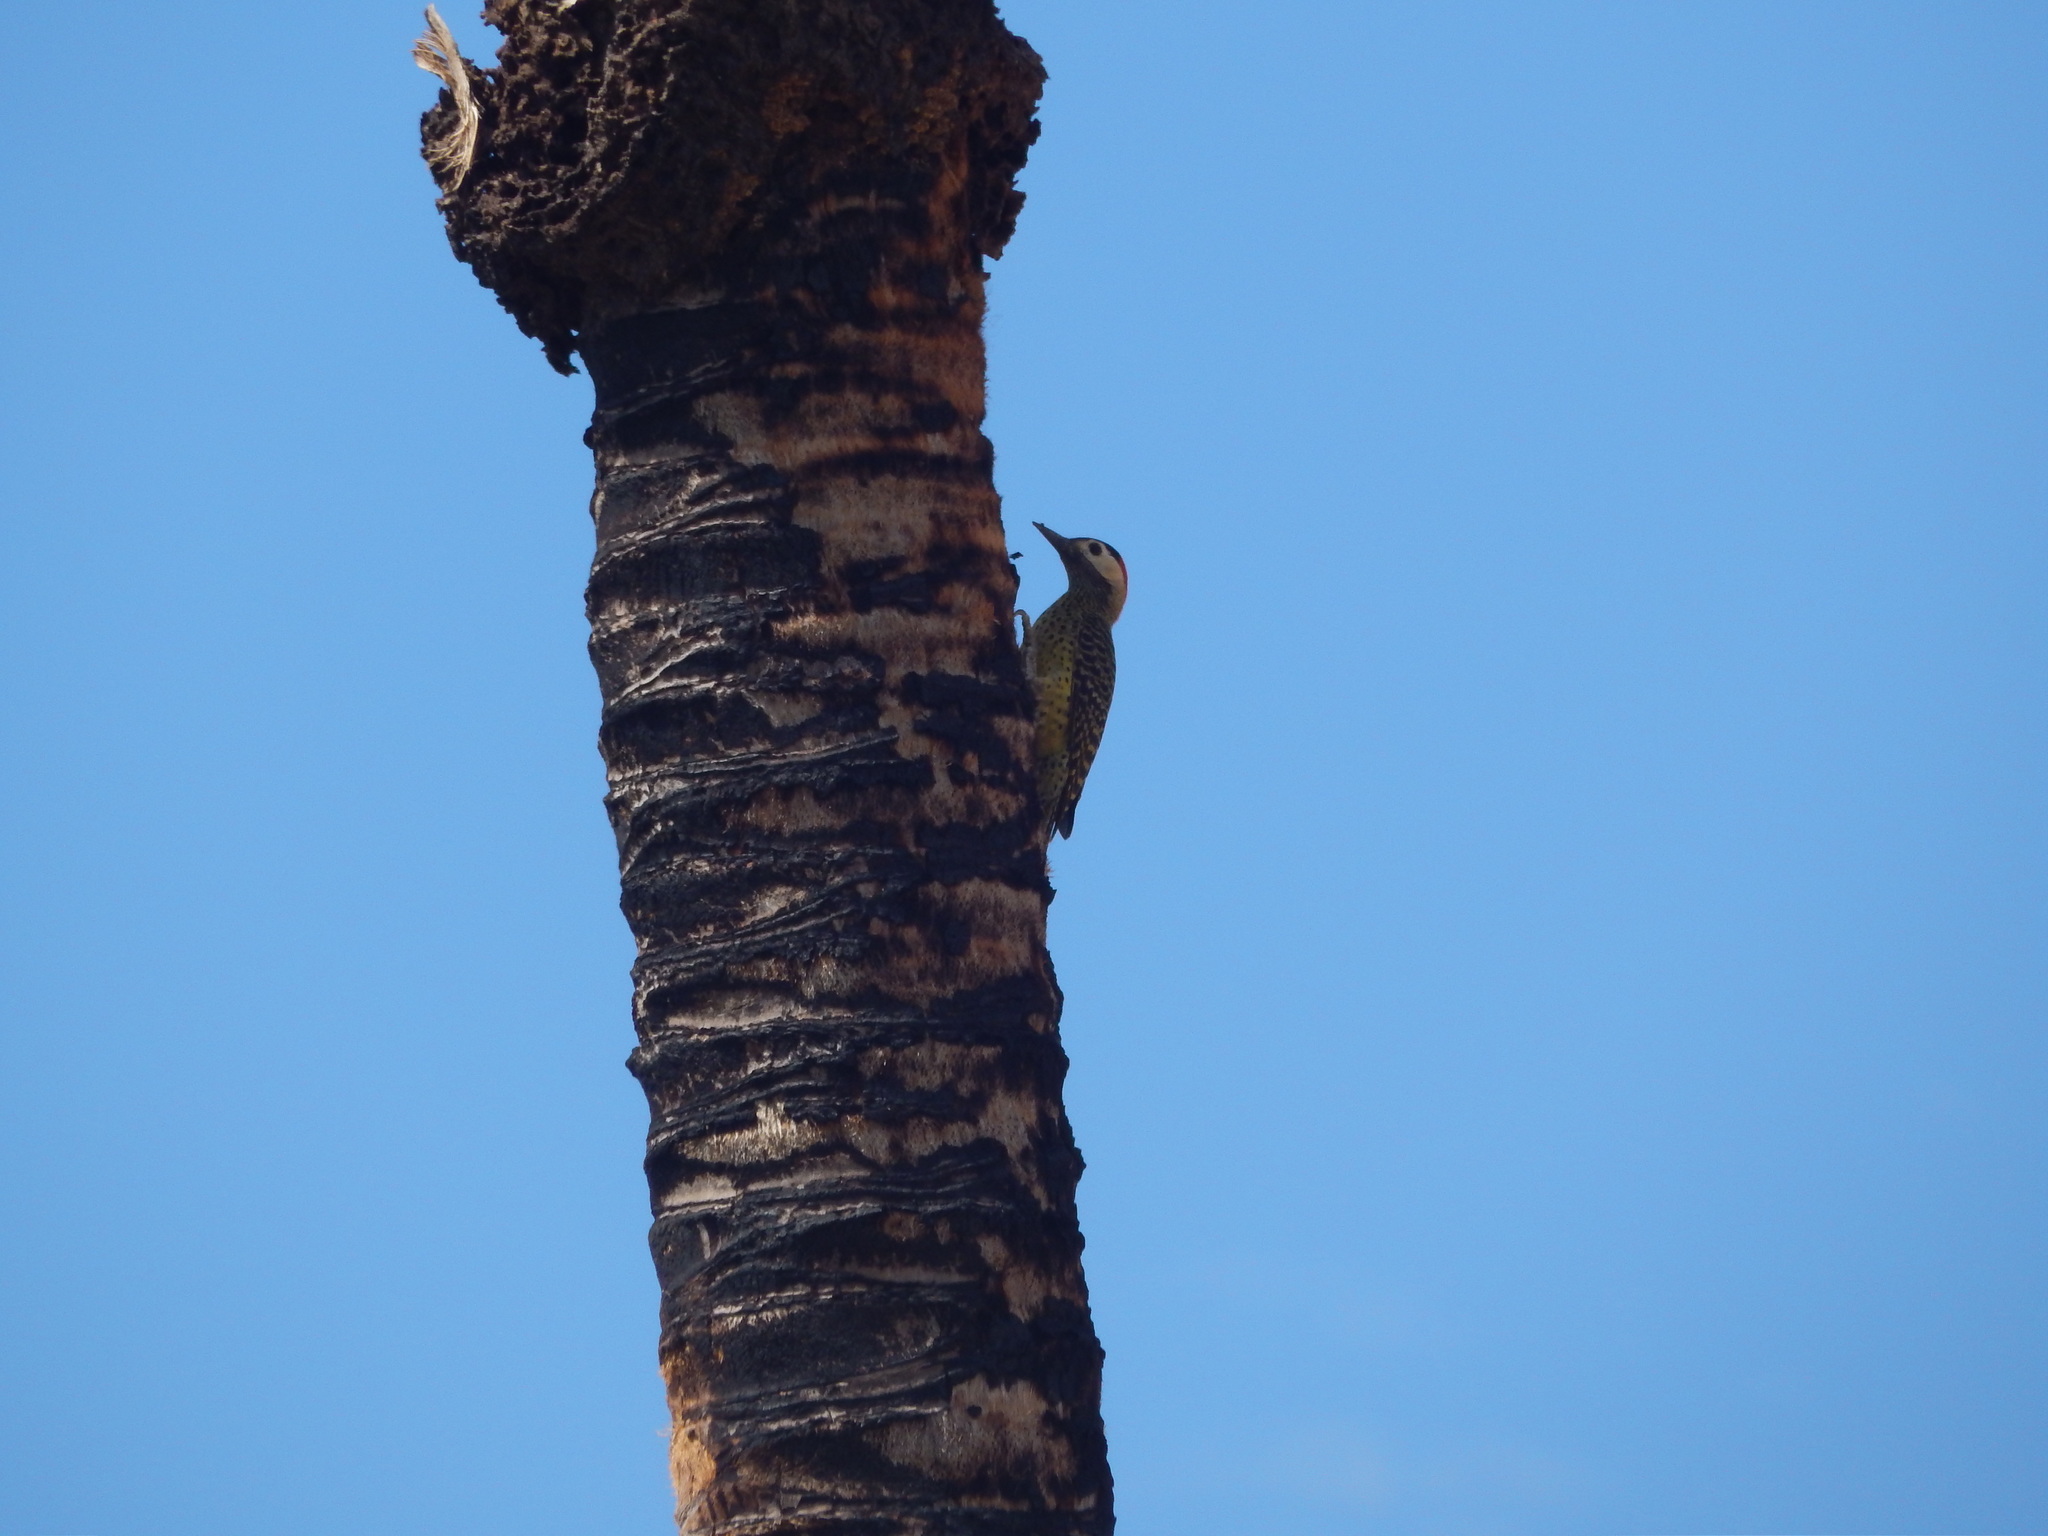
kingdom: Animalia
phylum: Chordata
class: Aves
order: Piciformes
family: Picidae
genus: Colaptes
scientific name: Colaptes melanochloros
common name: Green-barred woodpecker
